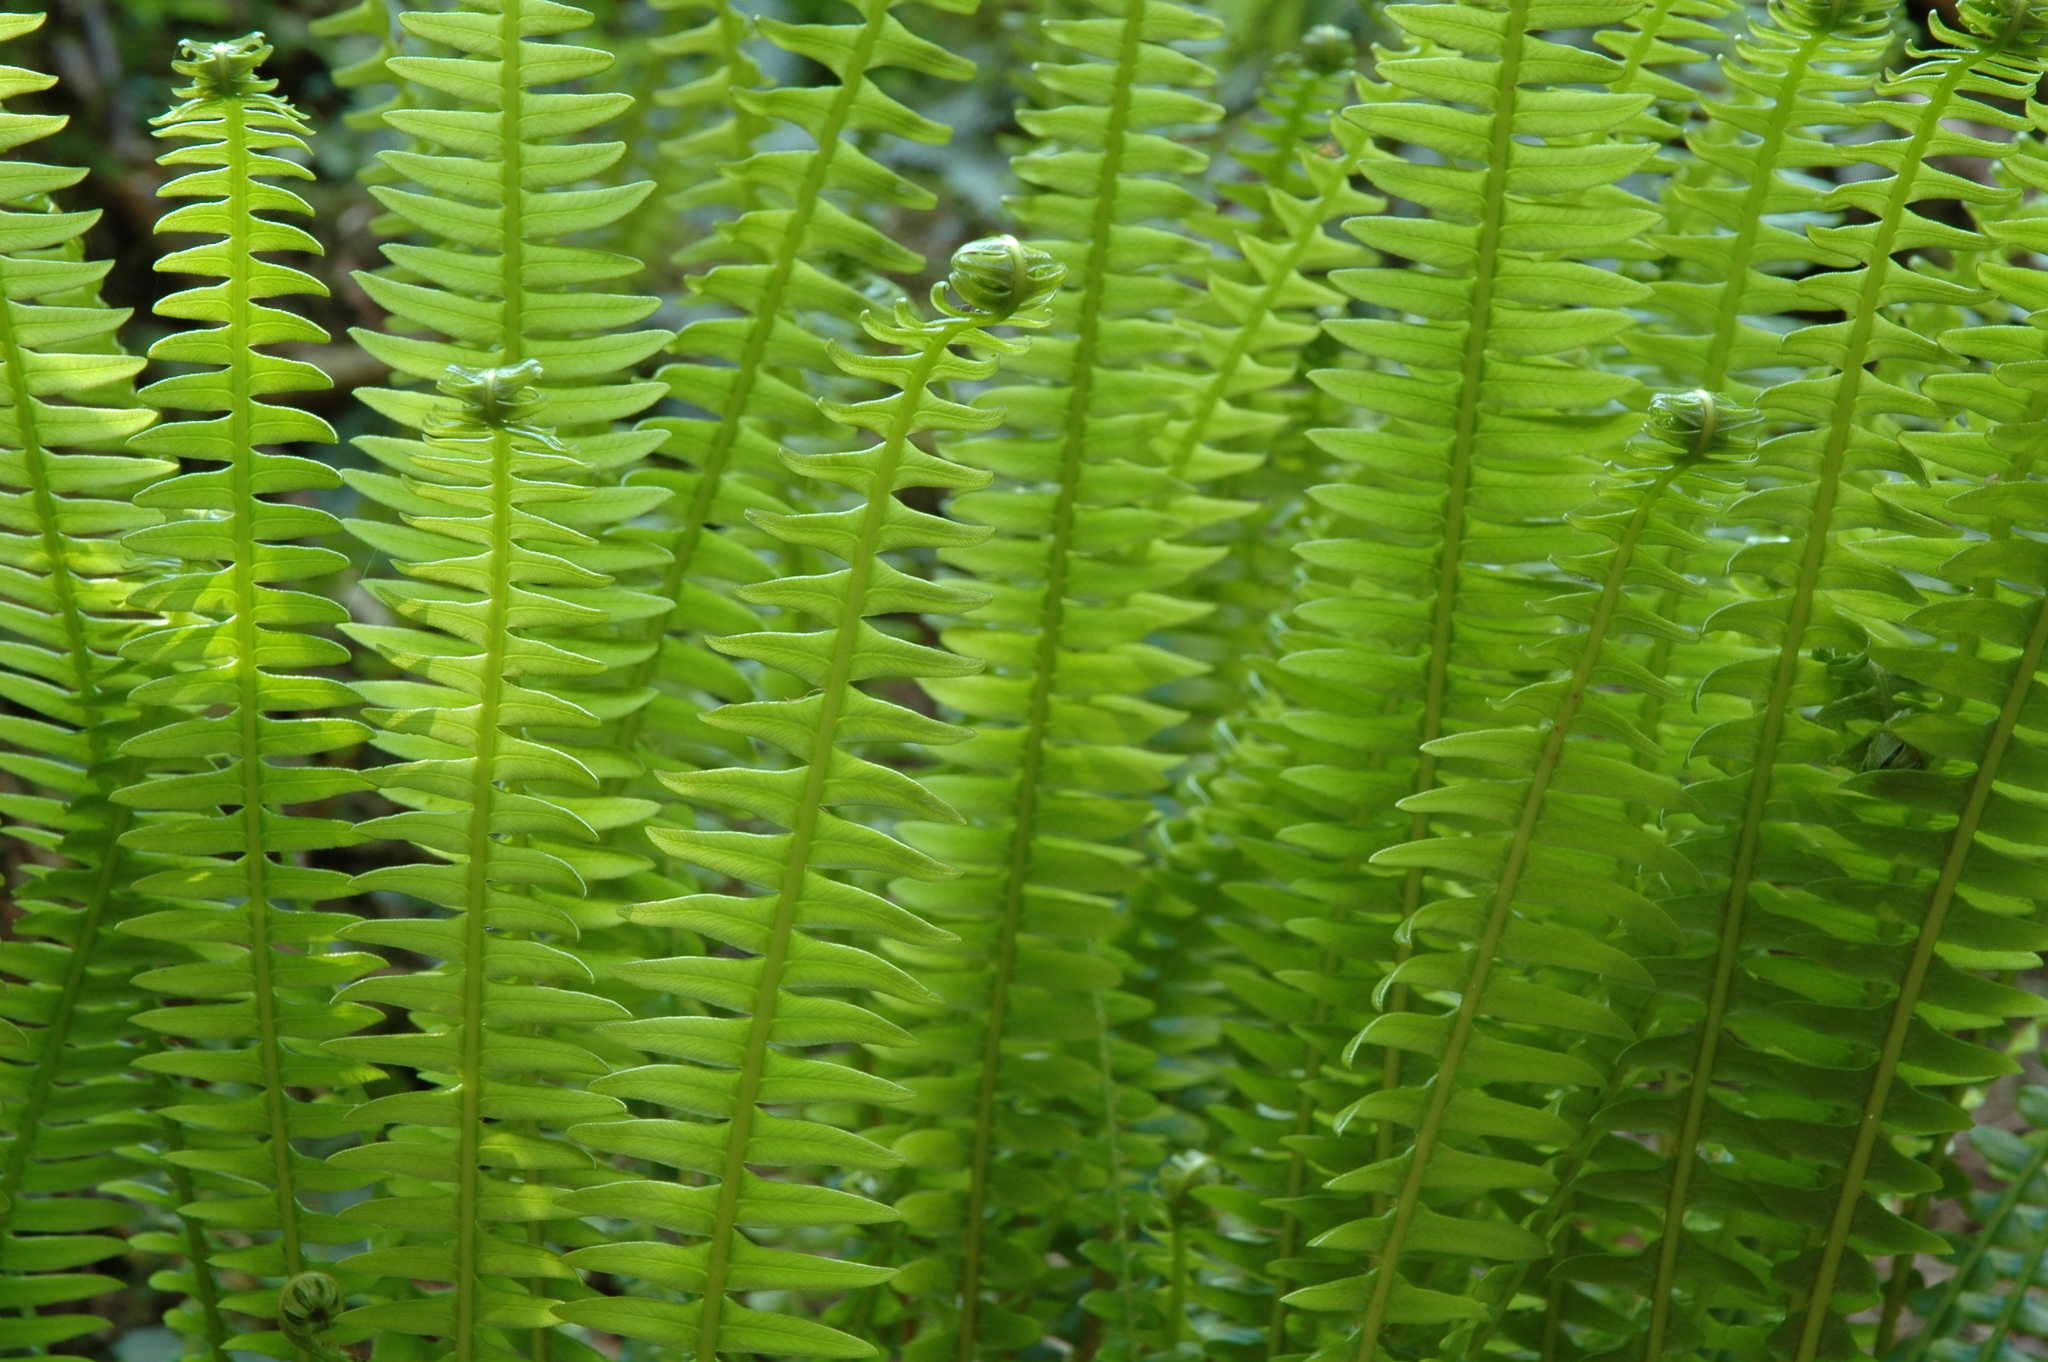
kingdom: Plantae
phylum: Tracheophyta
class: Polypodiopsida
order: Polypodiales
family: Blechnaceae
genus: Struthiopteris
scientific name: Struthiopteris spicant
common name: Deer fern
